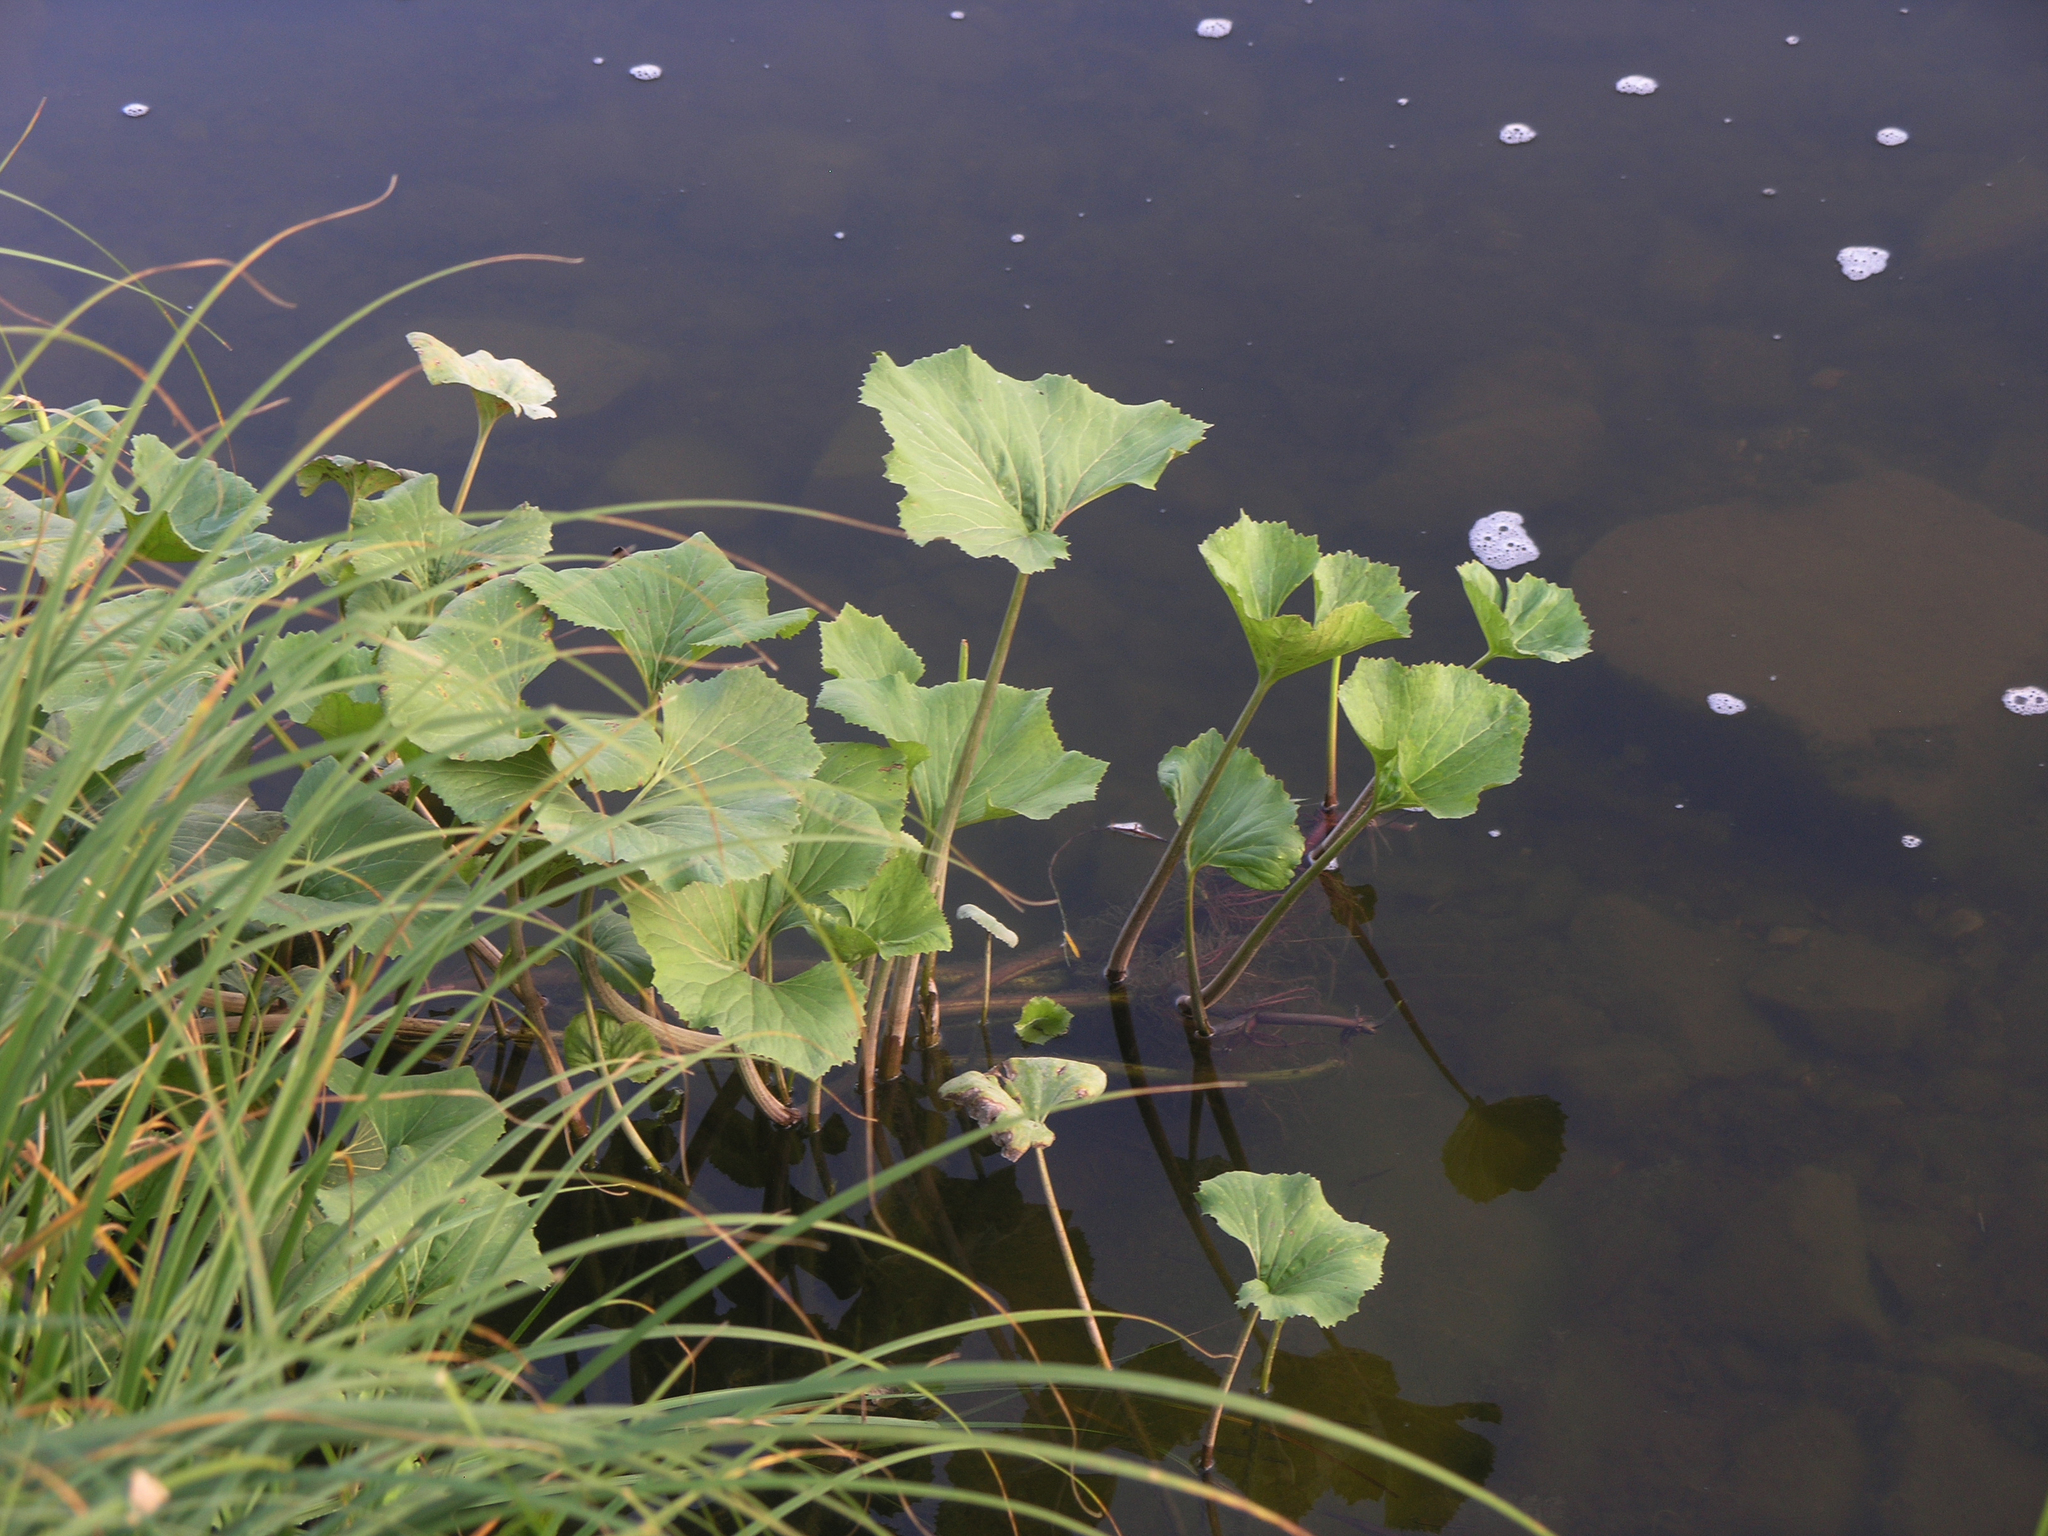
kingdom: Plantae
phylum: Tracheophyta
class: Magnoliopsida
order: Asterales
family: Asteraceae
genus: Petasites
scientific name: Petasites radiatus
